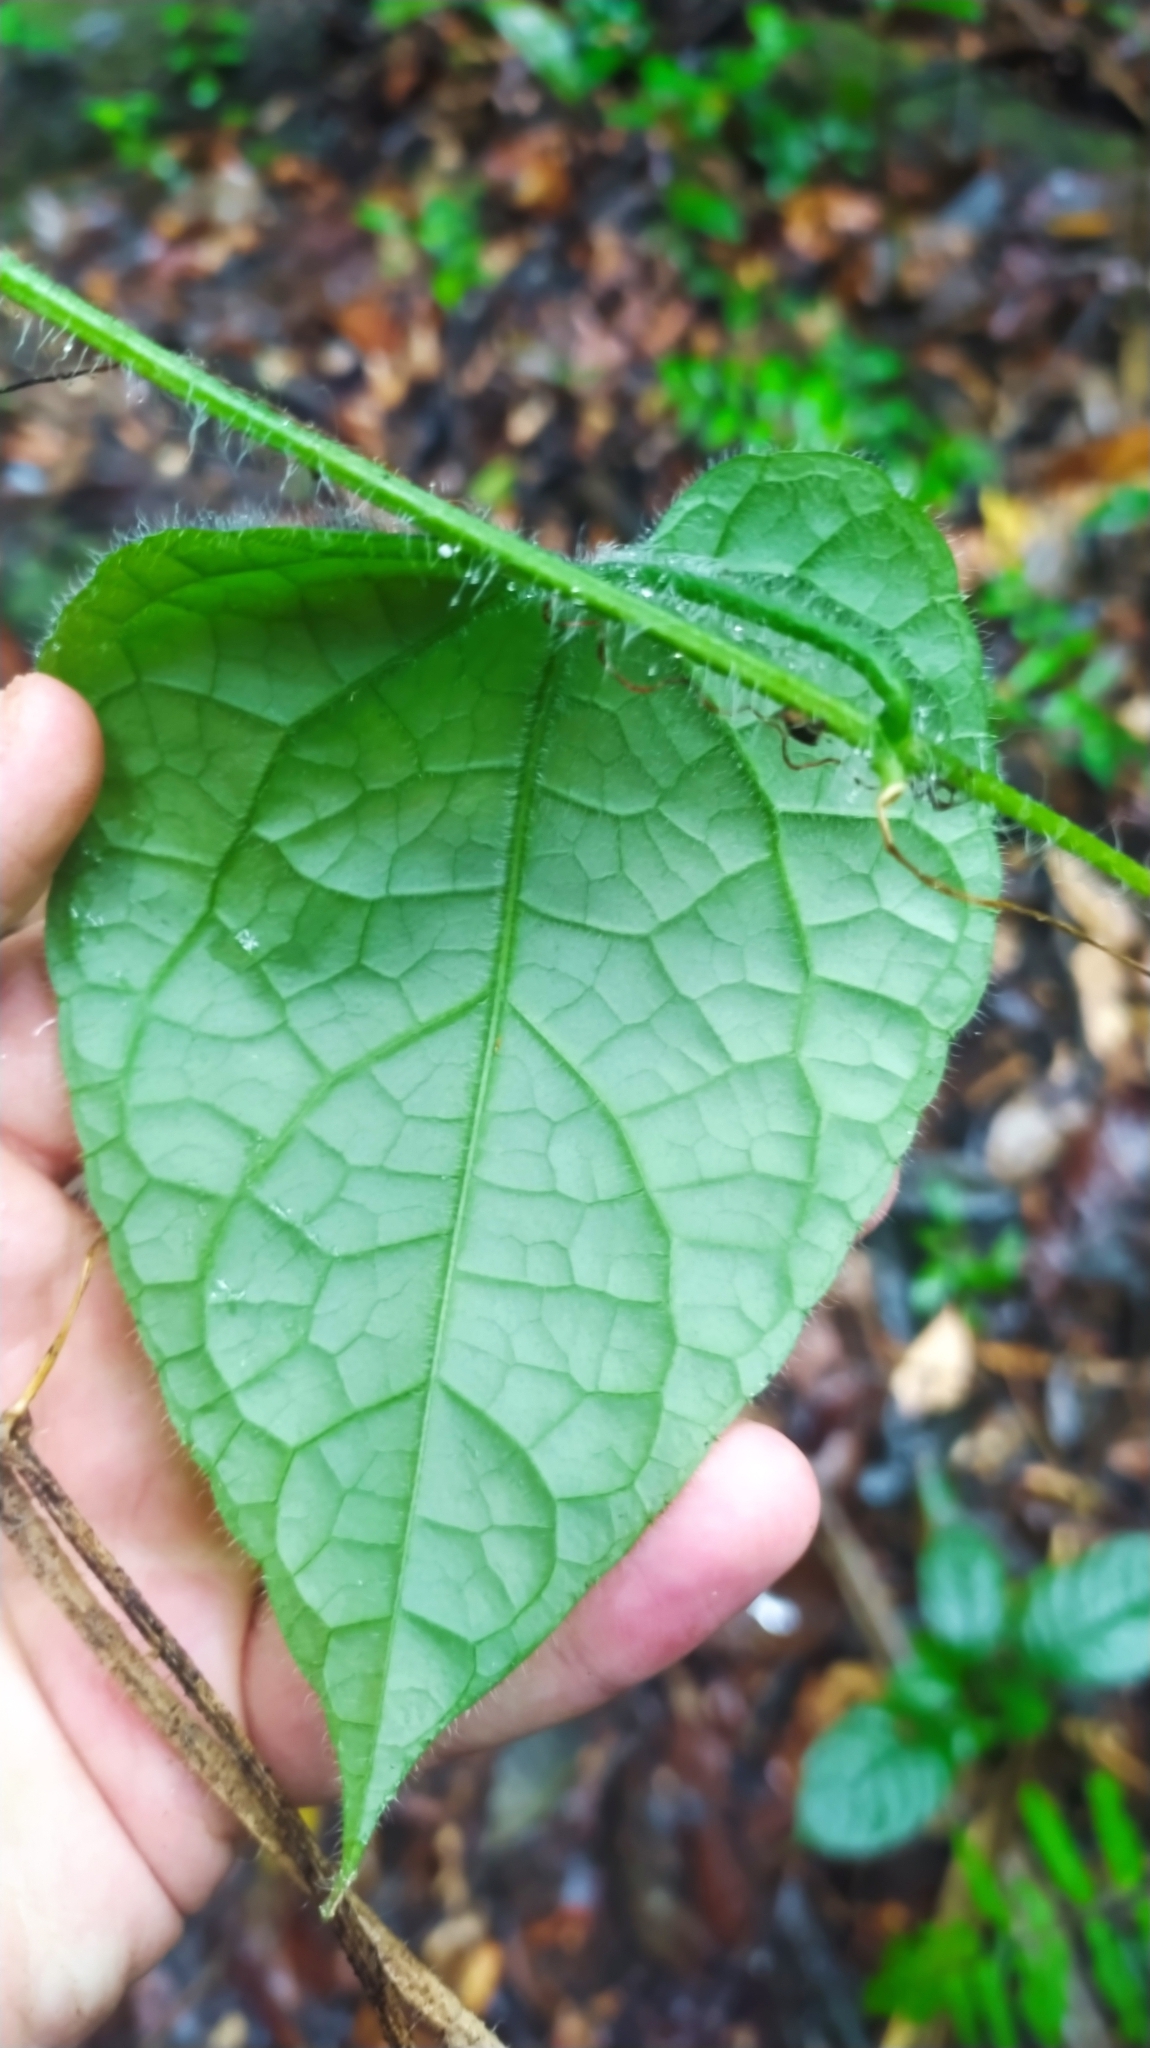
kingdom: Plantae
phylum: Tracheophyta
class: Magnoliopsida
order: Cucurbitales
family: Cucurbitaceae
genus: Gurania
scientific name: Gurania bignoniacea
